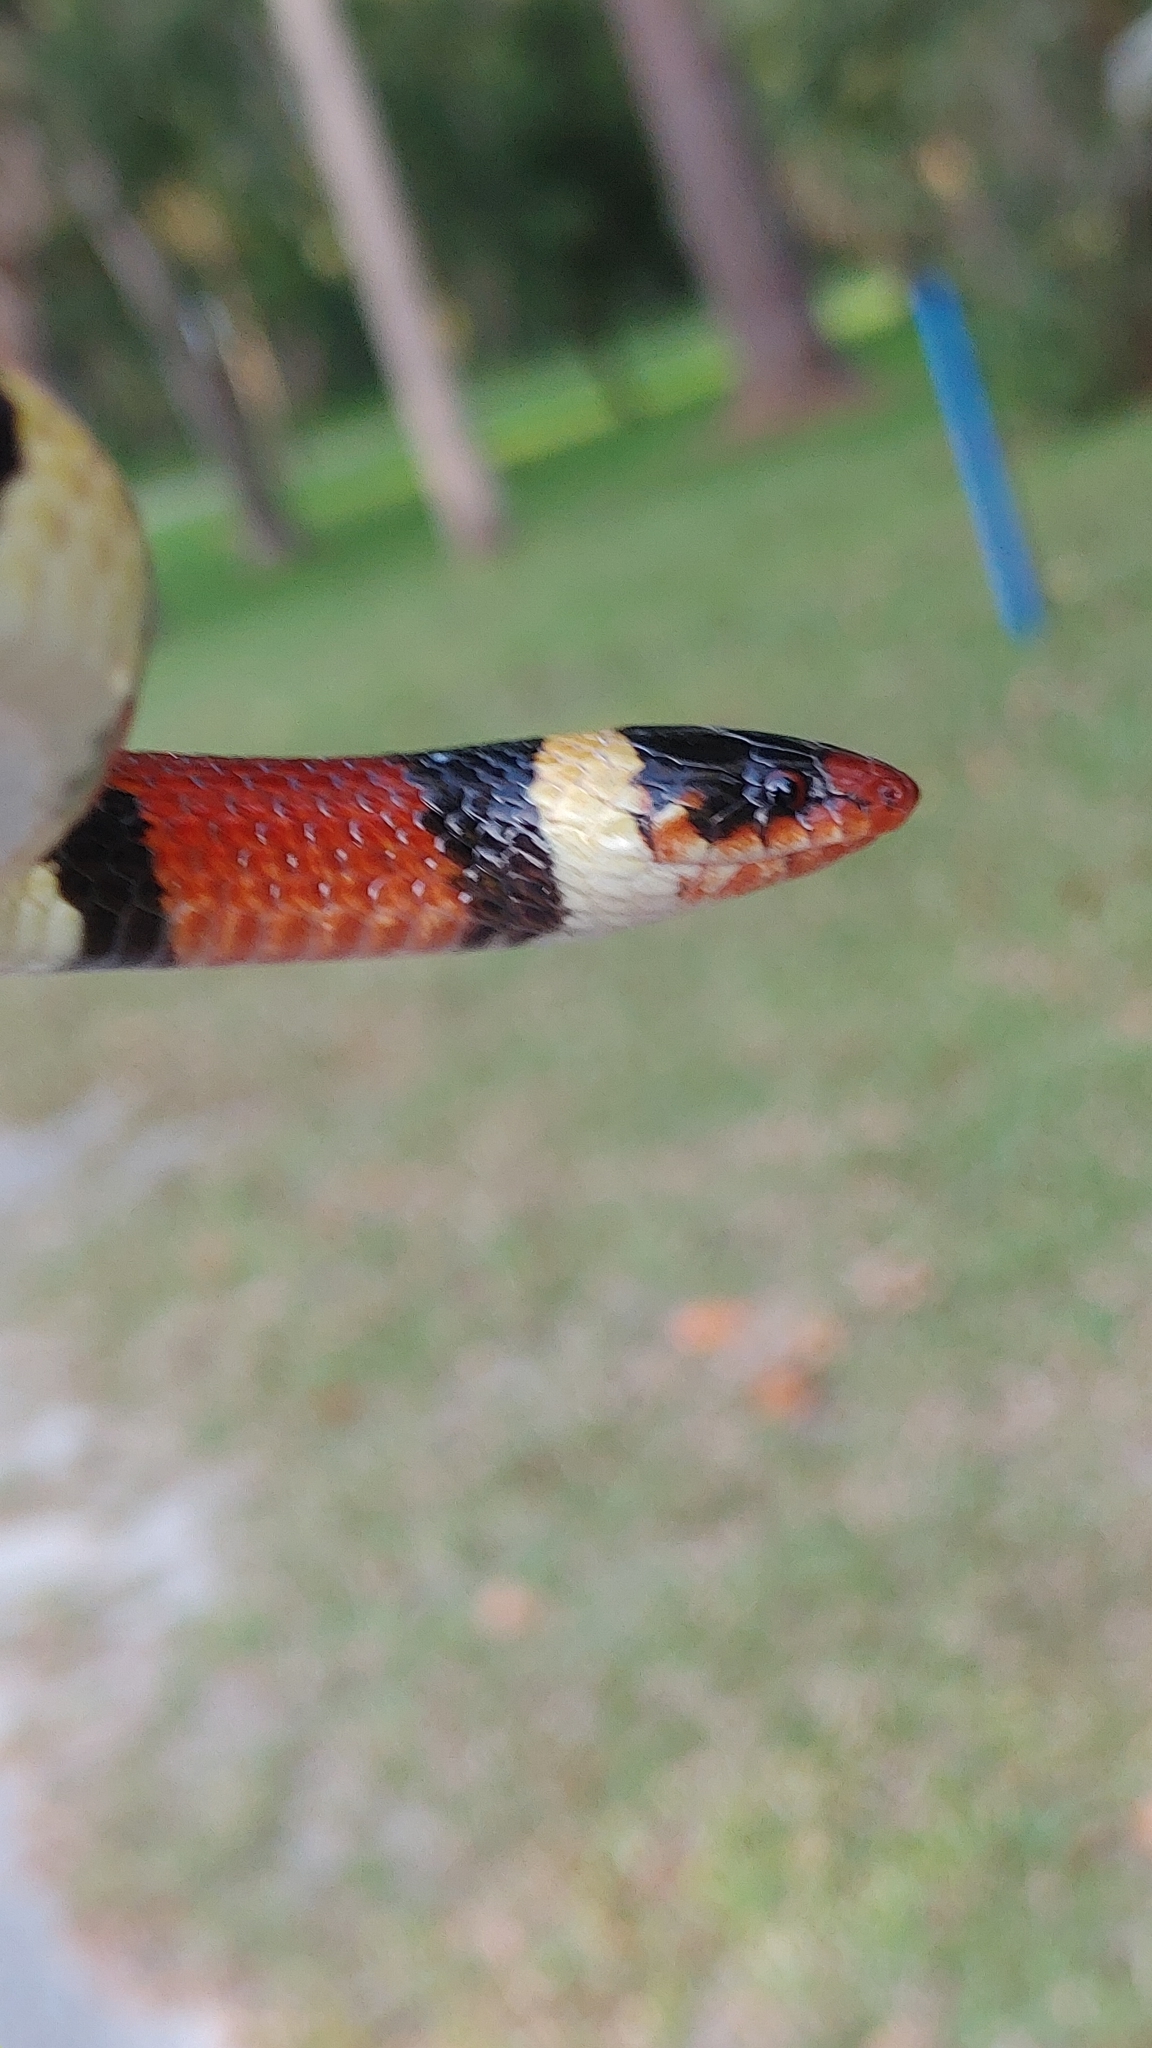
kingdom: Animalia
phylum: Chordata
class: Squamata
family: Colubridae
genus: Lampropeltis
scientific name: Lampropeltis elapsoides
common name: Scarlet kingsnake
